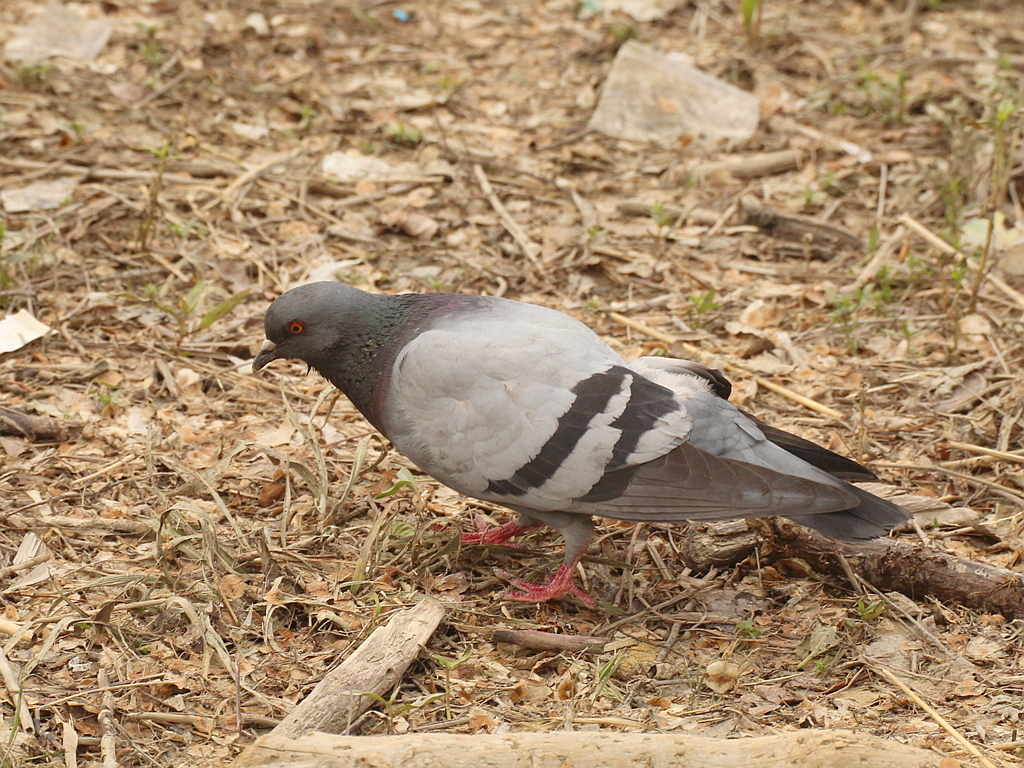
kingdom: Animalia
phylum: Chordata
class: Aves
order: Columbiformes
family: Columbidae
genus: Columba
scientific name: Columba livia
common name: Rock pigeon
